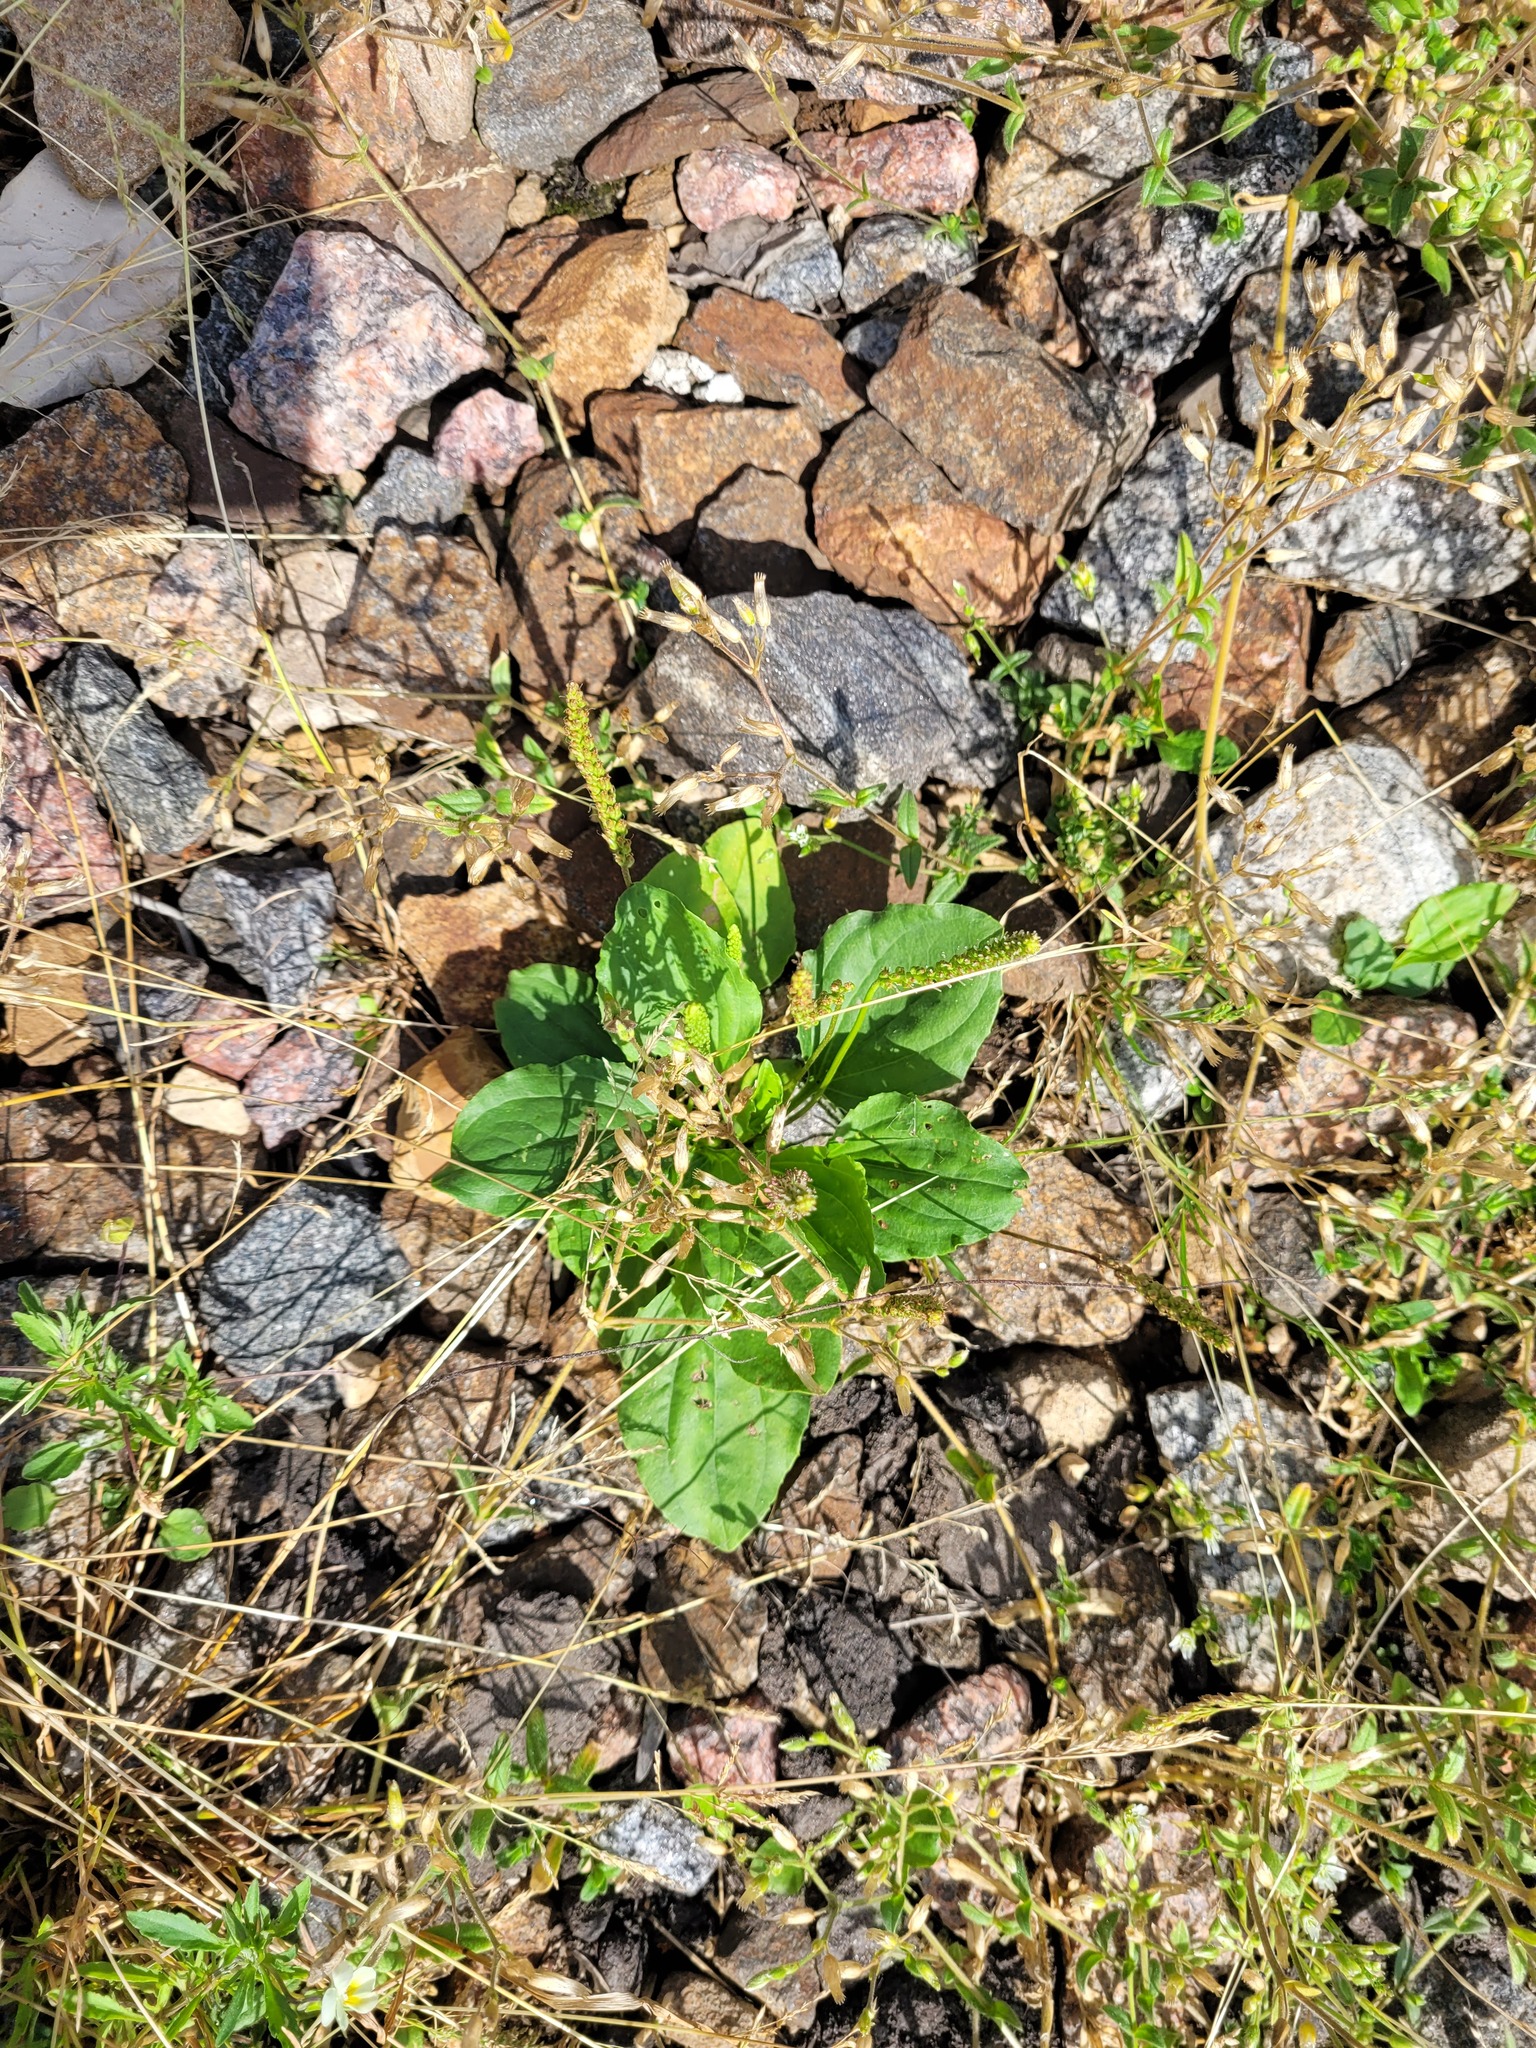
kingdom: Plantae
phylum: Tracheophyta
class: Magnoliopsida
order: Lamiales
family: Plantaginaceae
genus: Plantago
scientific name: Plantago major
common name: Common plantain
